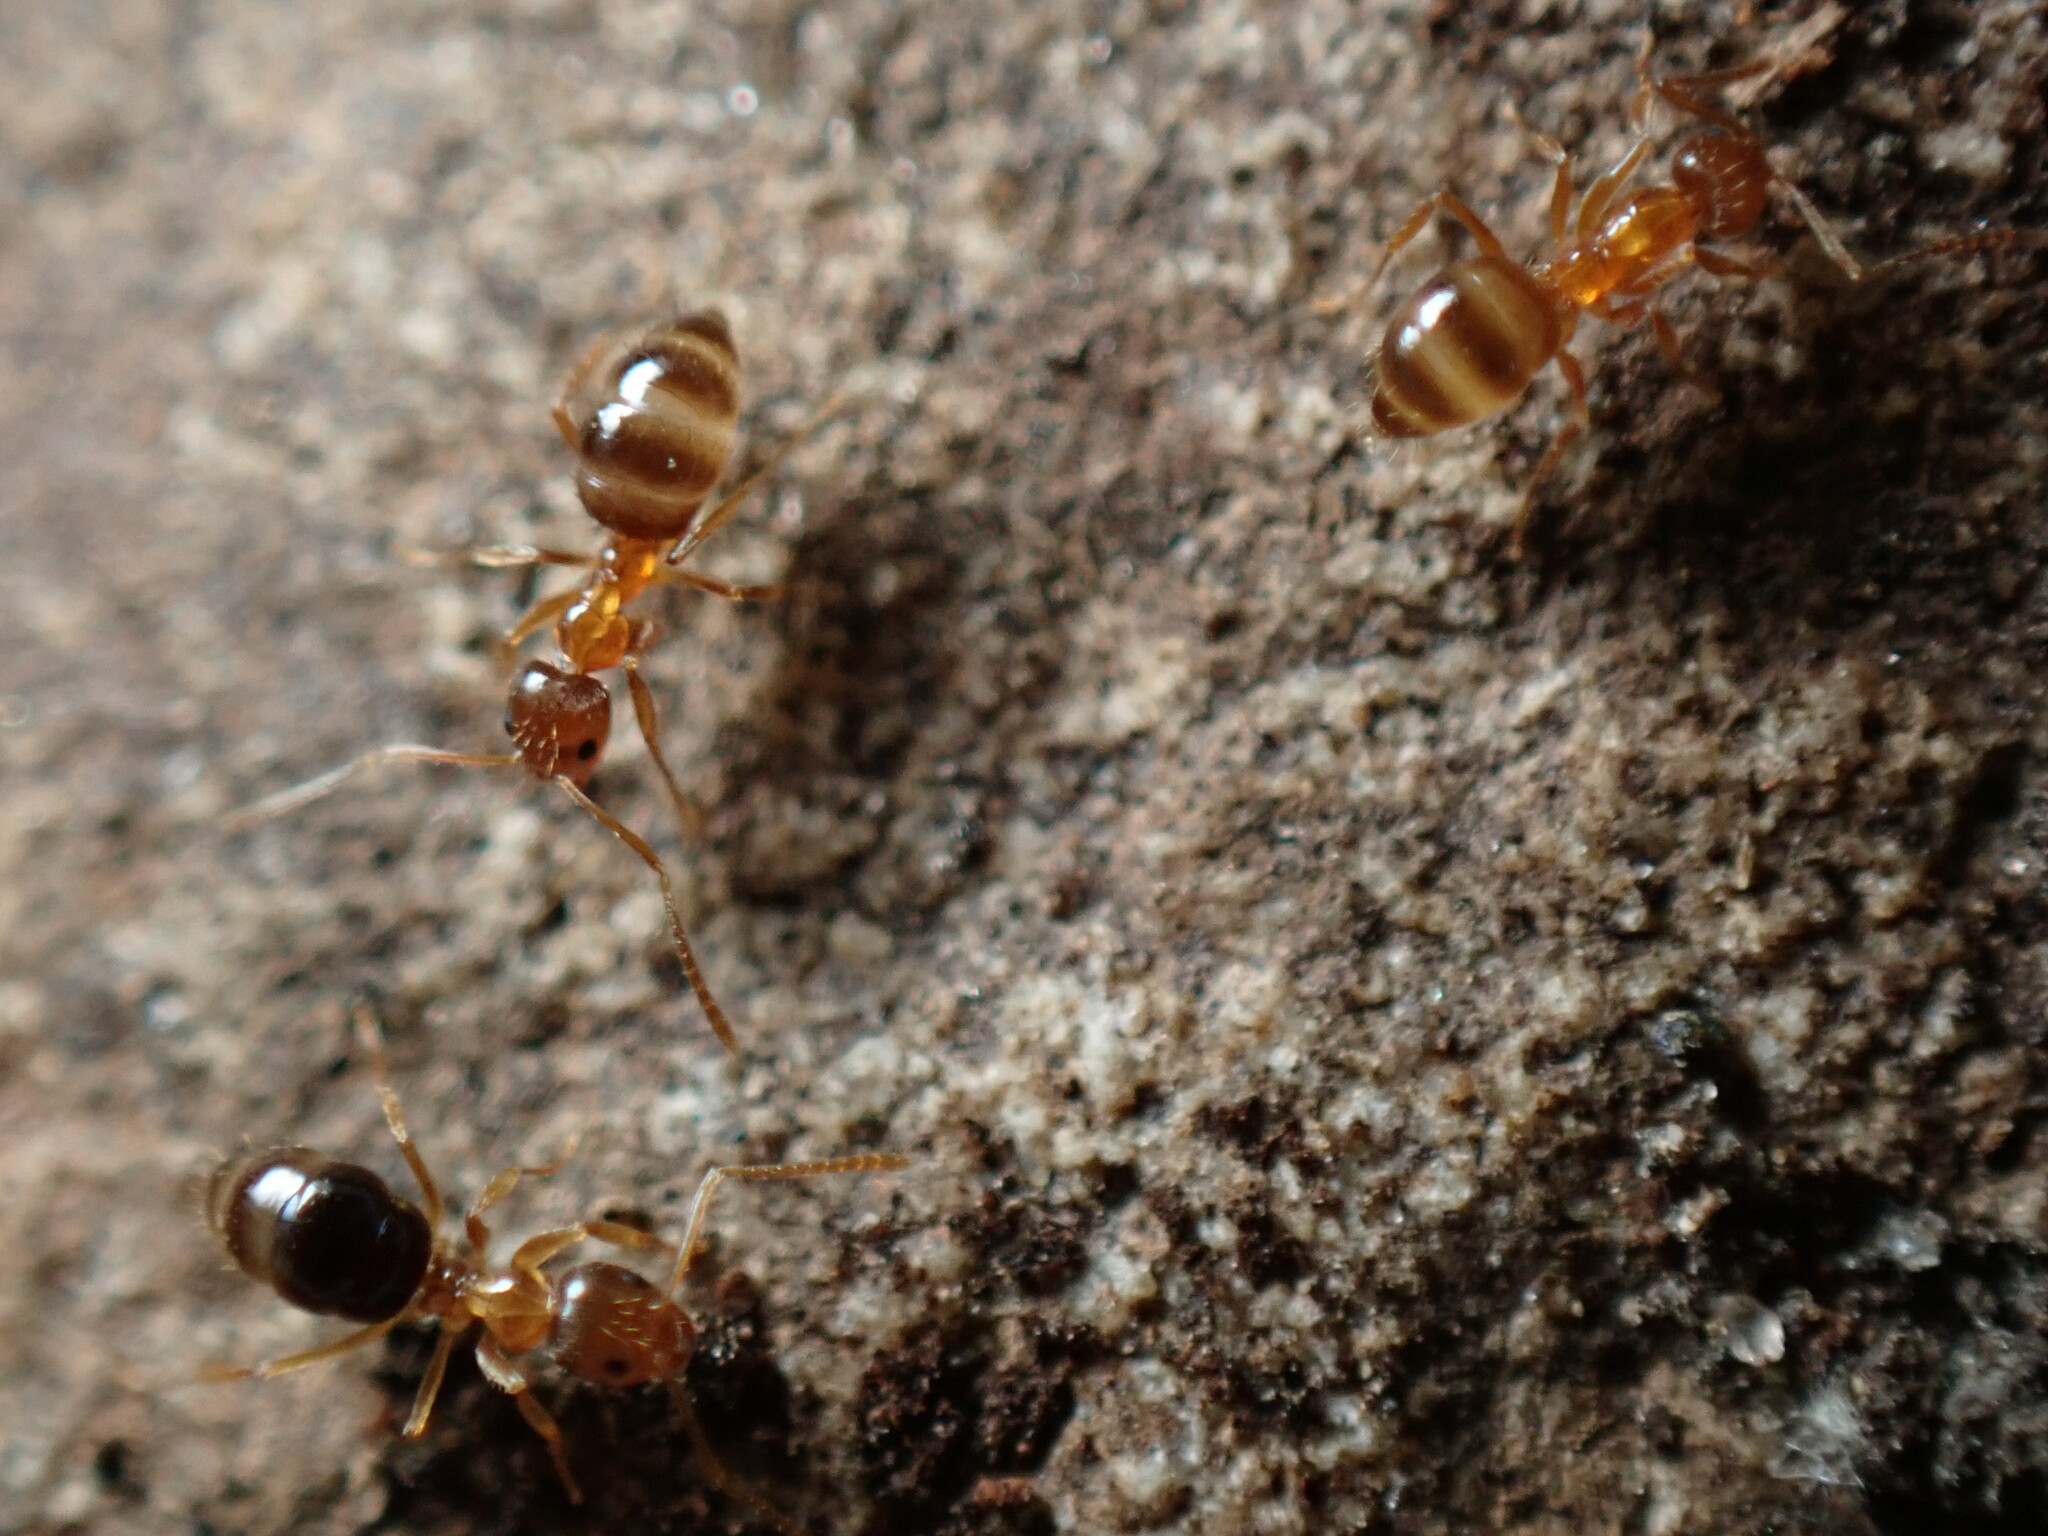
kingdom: Animalia
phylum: Arthropoda
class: Insecta
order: Hymenoptera
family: Formicidae
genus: Paratrechina
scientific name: Paratrechina flavipes
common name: Eastern asian formicine ant
